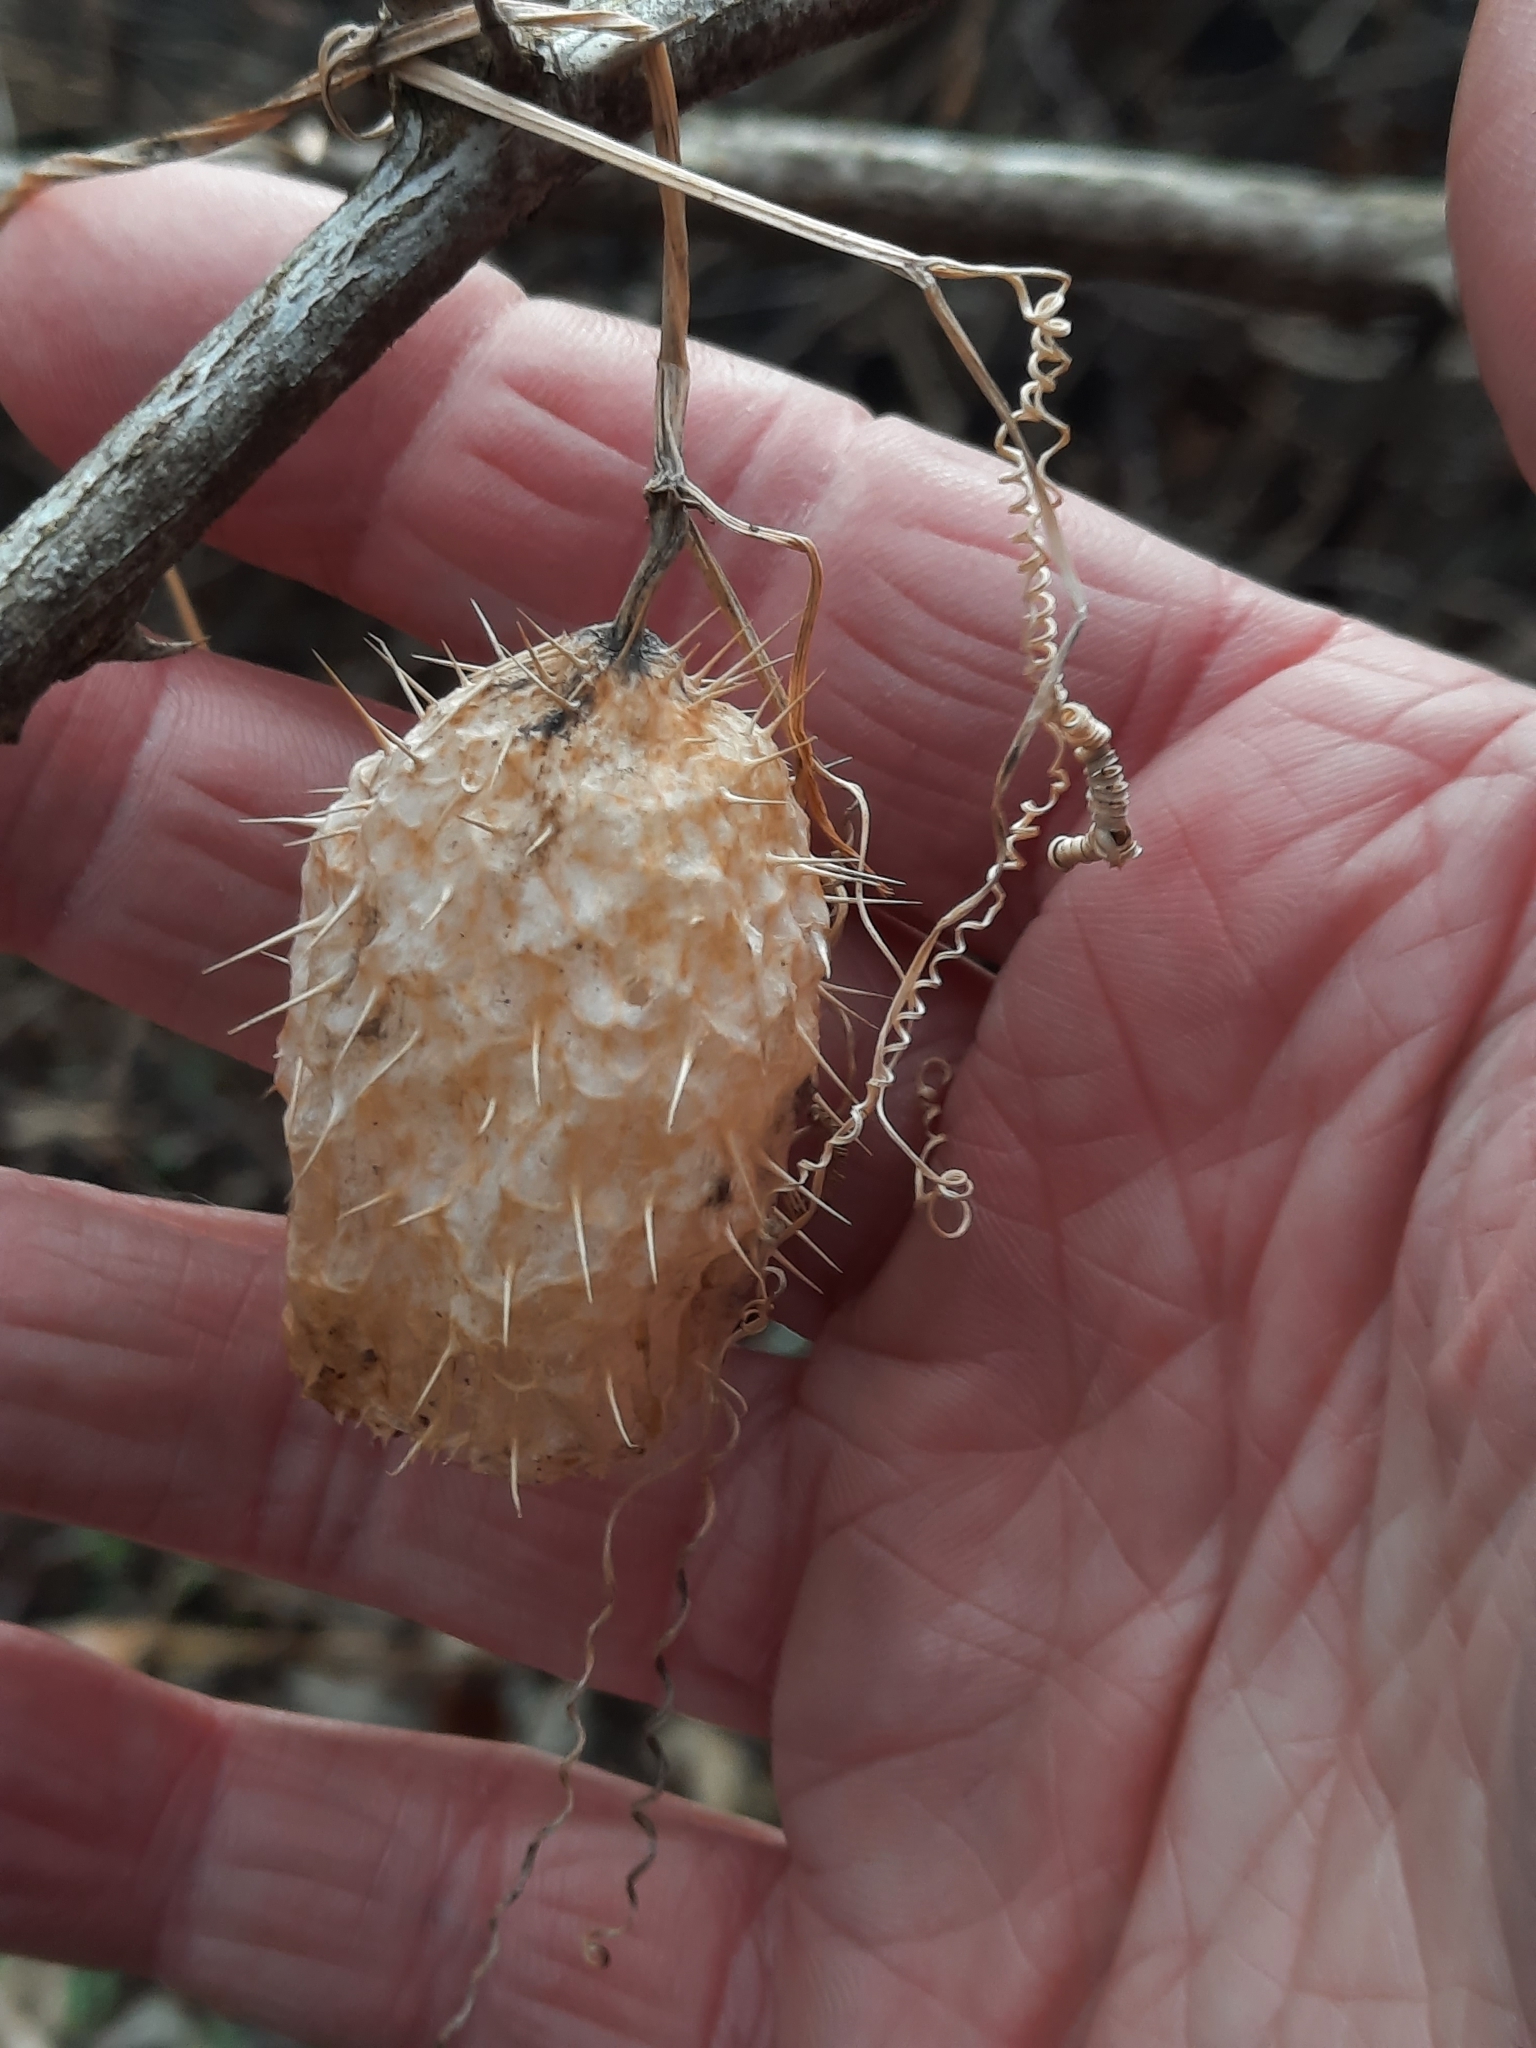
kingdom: Plantae
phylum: Tracheophyta
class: Magnoliopsida
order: Cucurbitales
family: Cucurbitaceae
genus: Echinocystis
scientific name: Echinocystis lobata
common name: Wild cucumber
